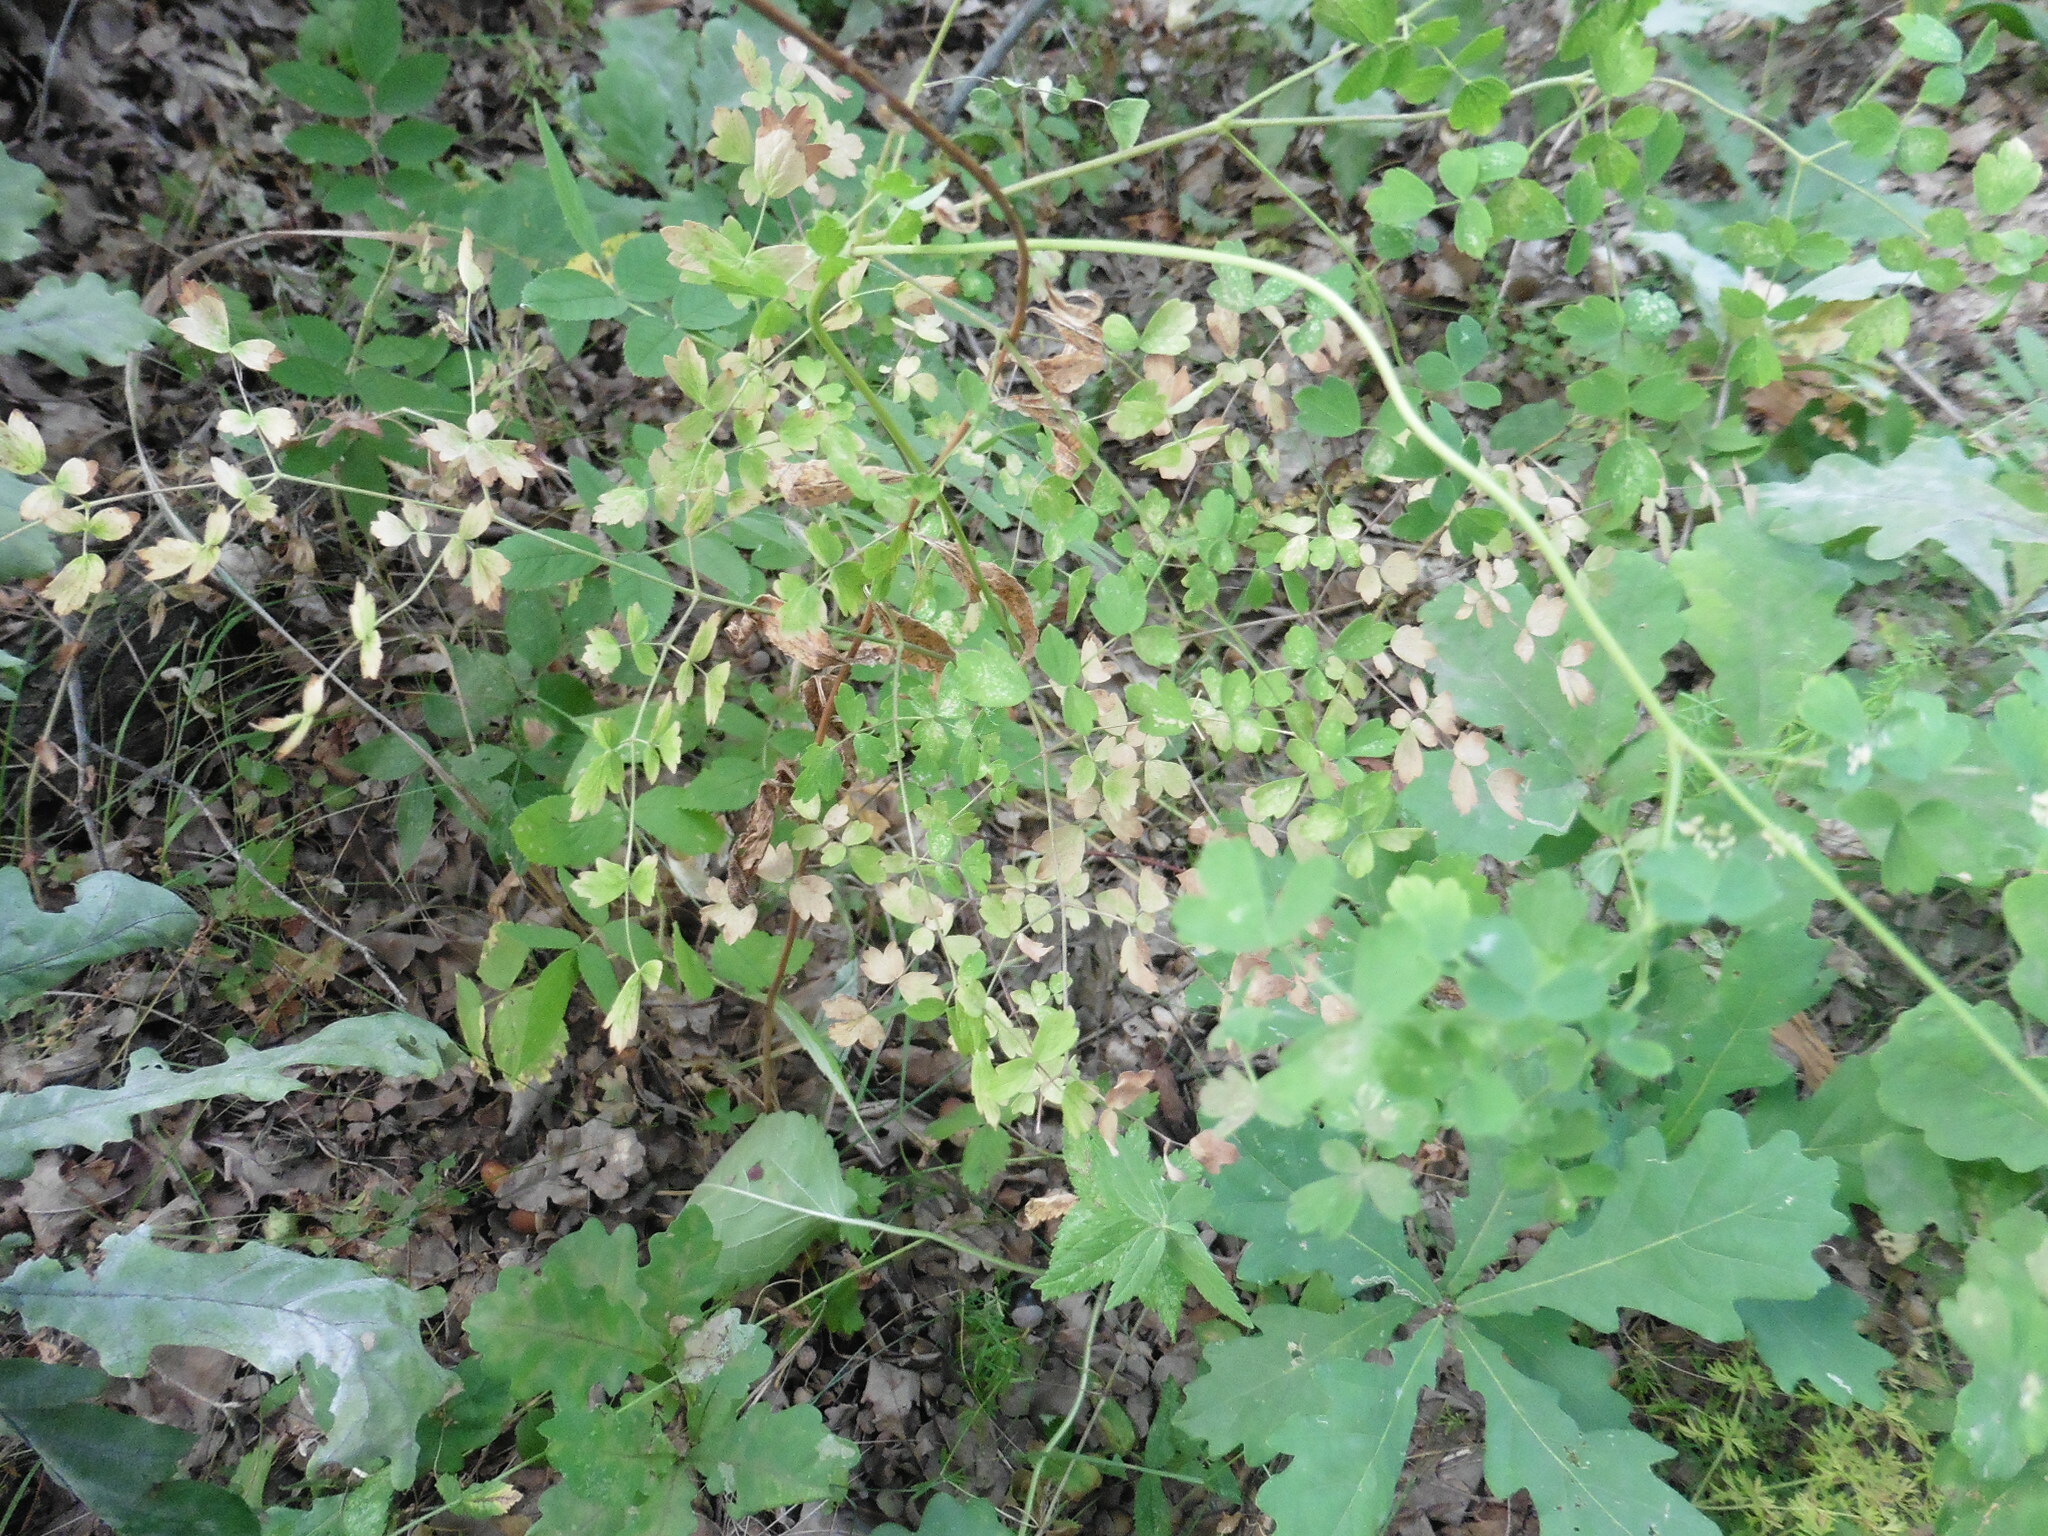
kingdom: Plantae
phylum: Tracheophyta
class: Magnoliopsida
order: Ranunculales
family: Ranunculaceae
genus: Thalictrum
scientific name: Thalictrum minus
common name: Lesser meadow-rue
